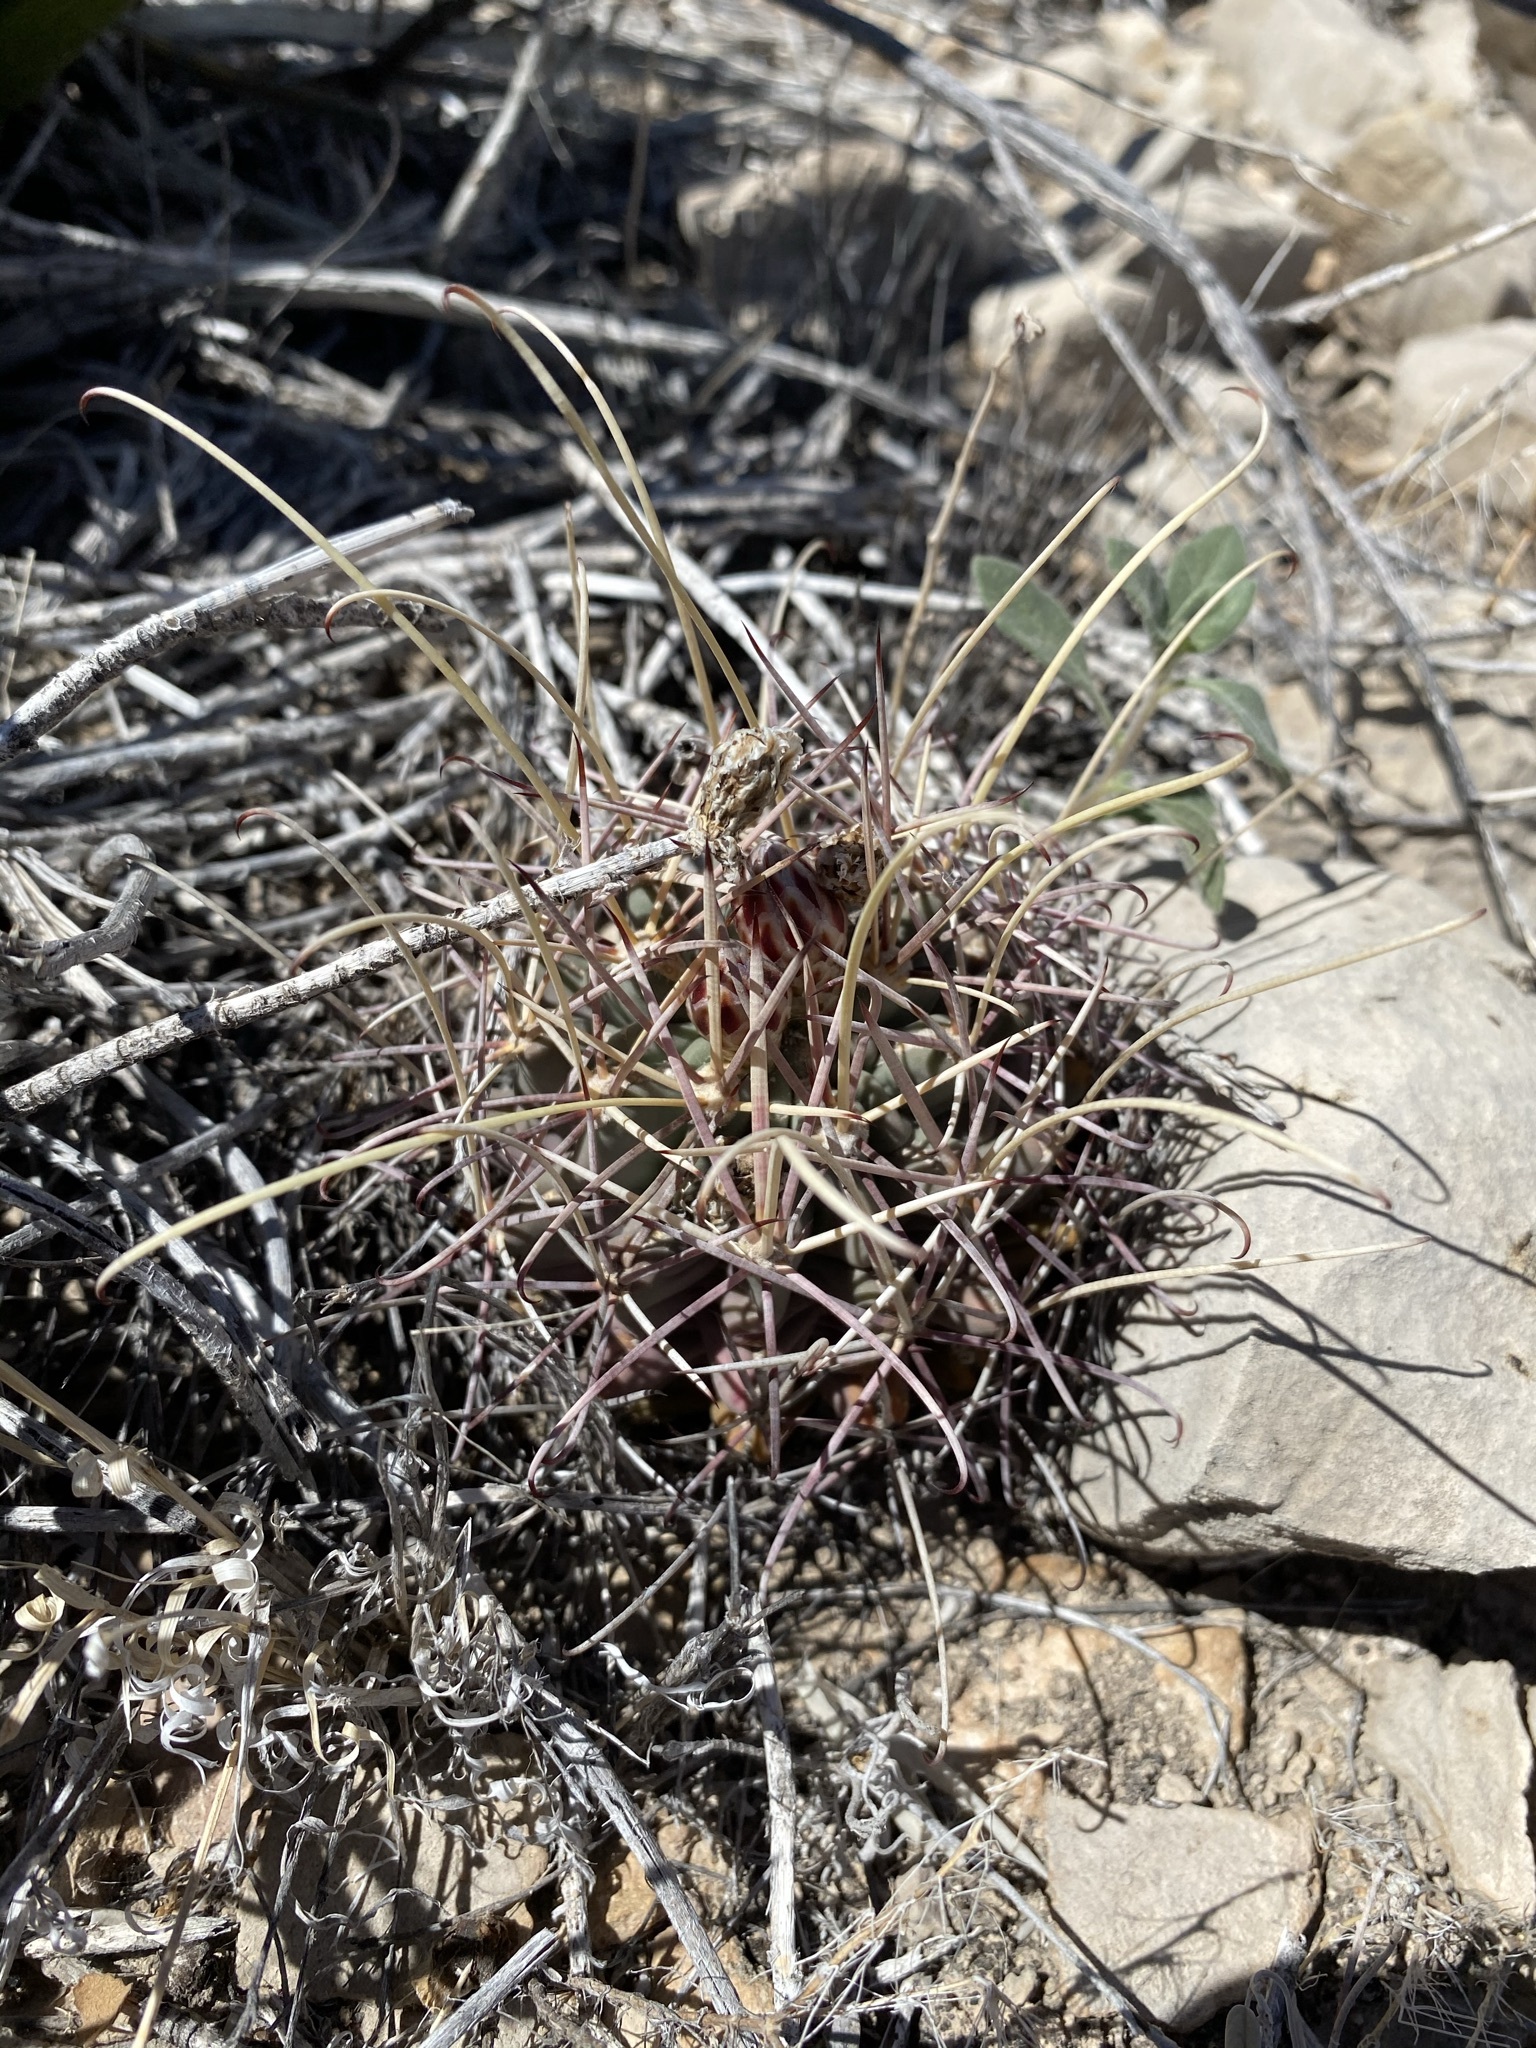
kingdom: Plantae
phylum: Tracheophyta
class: Magnoliopsida
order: Caryophyllales
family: Cactaceae
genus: Ferocactus
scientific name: Ferocactus uncinatus
